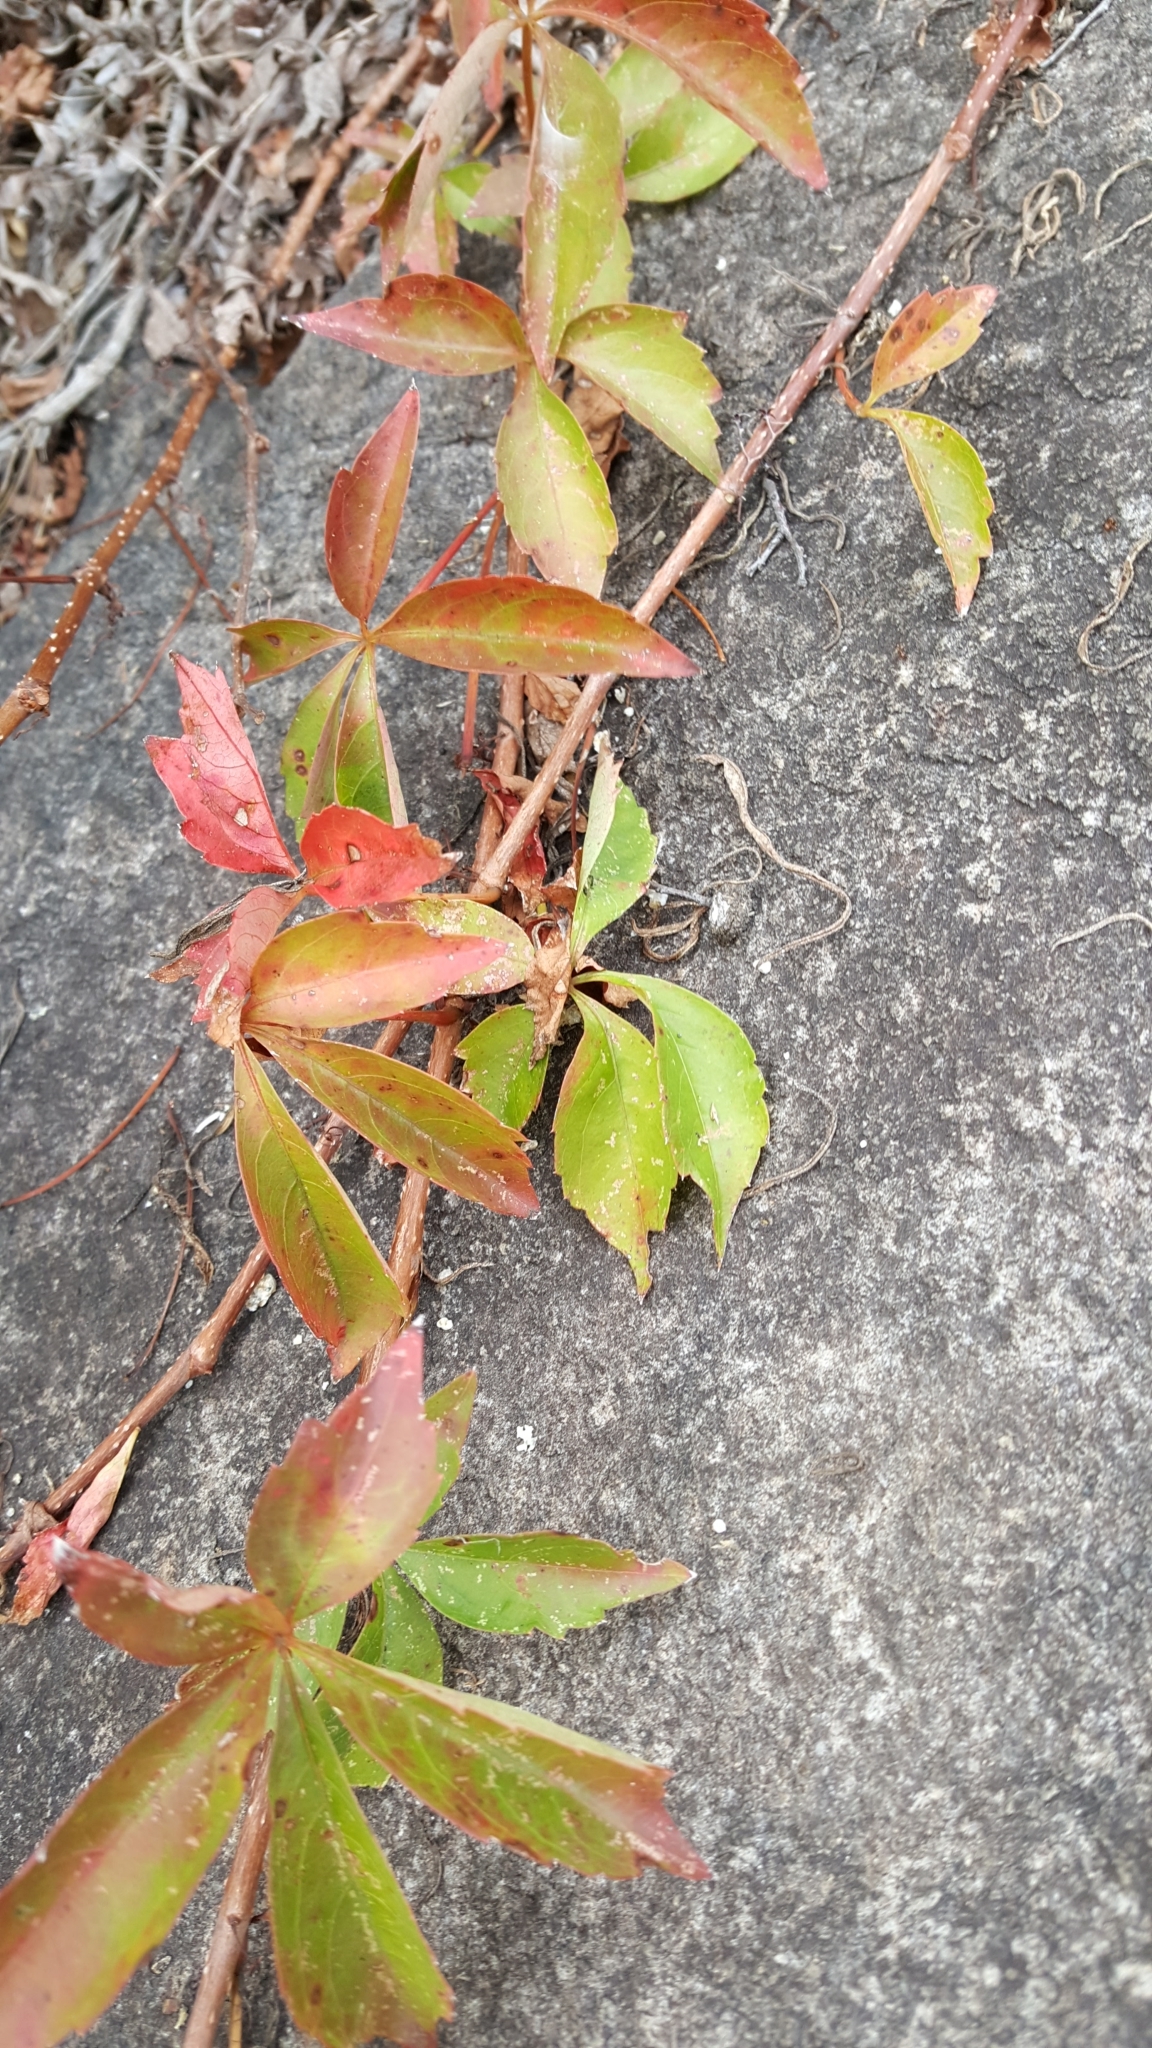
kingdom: Plantae
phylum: Tracheophyta
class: Magnoliopsida
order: Vitales
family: Vitaceae
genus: Parthenocissus
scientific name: Parthenocissus quinquefolia
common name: Virginia-creeper
